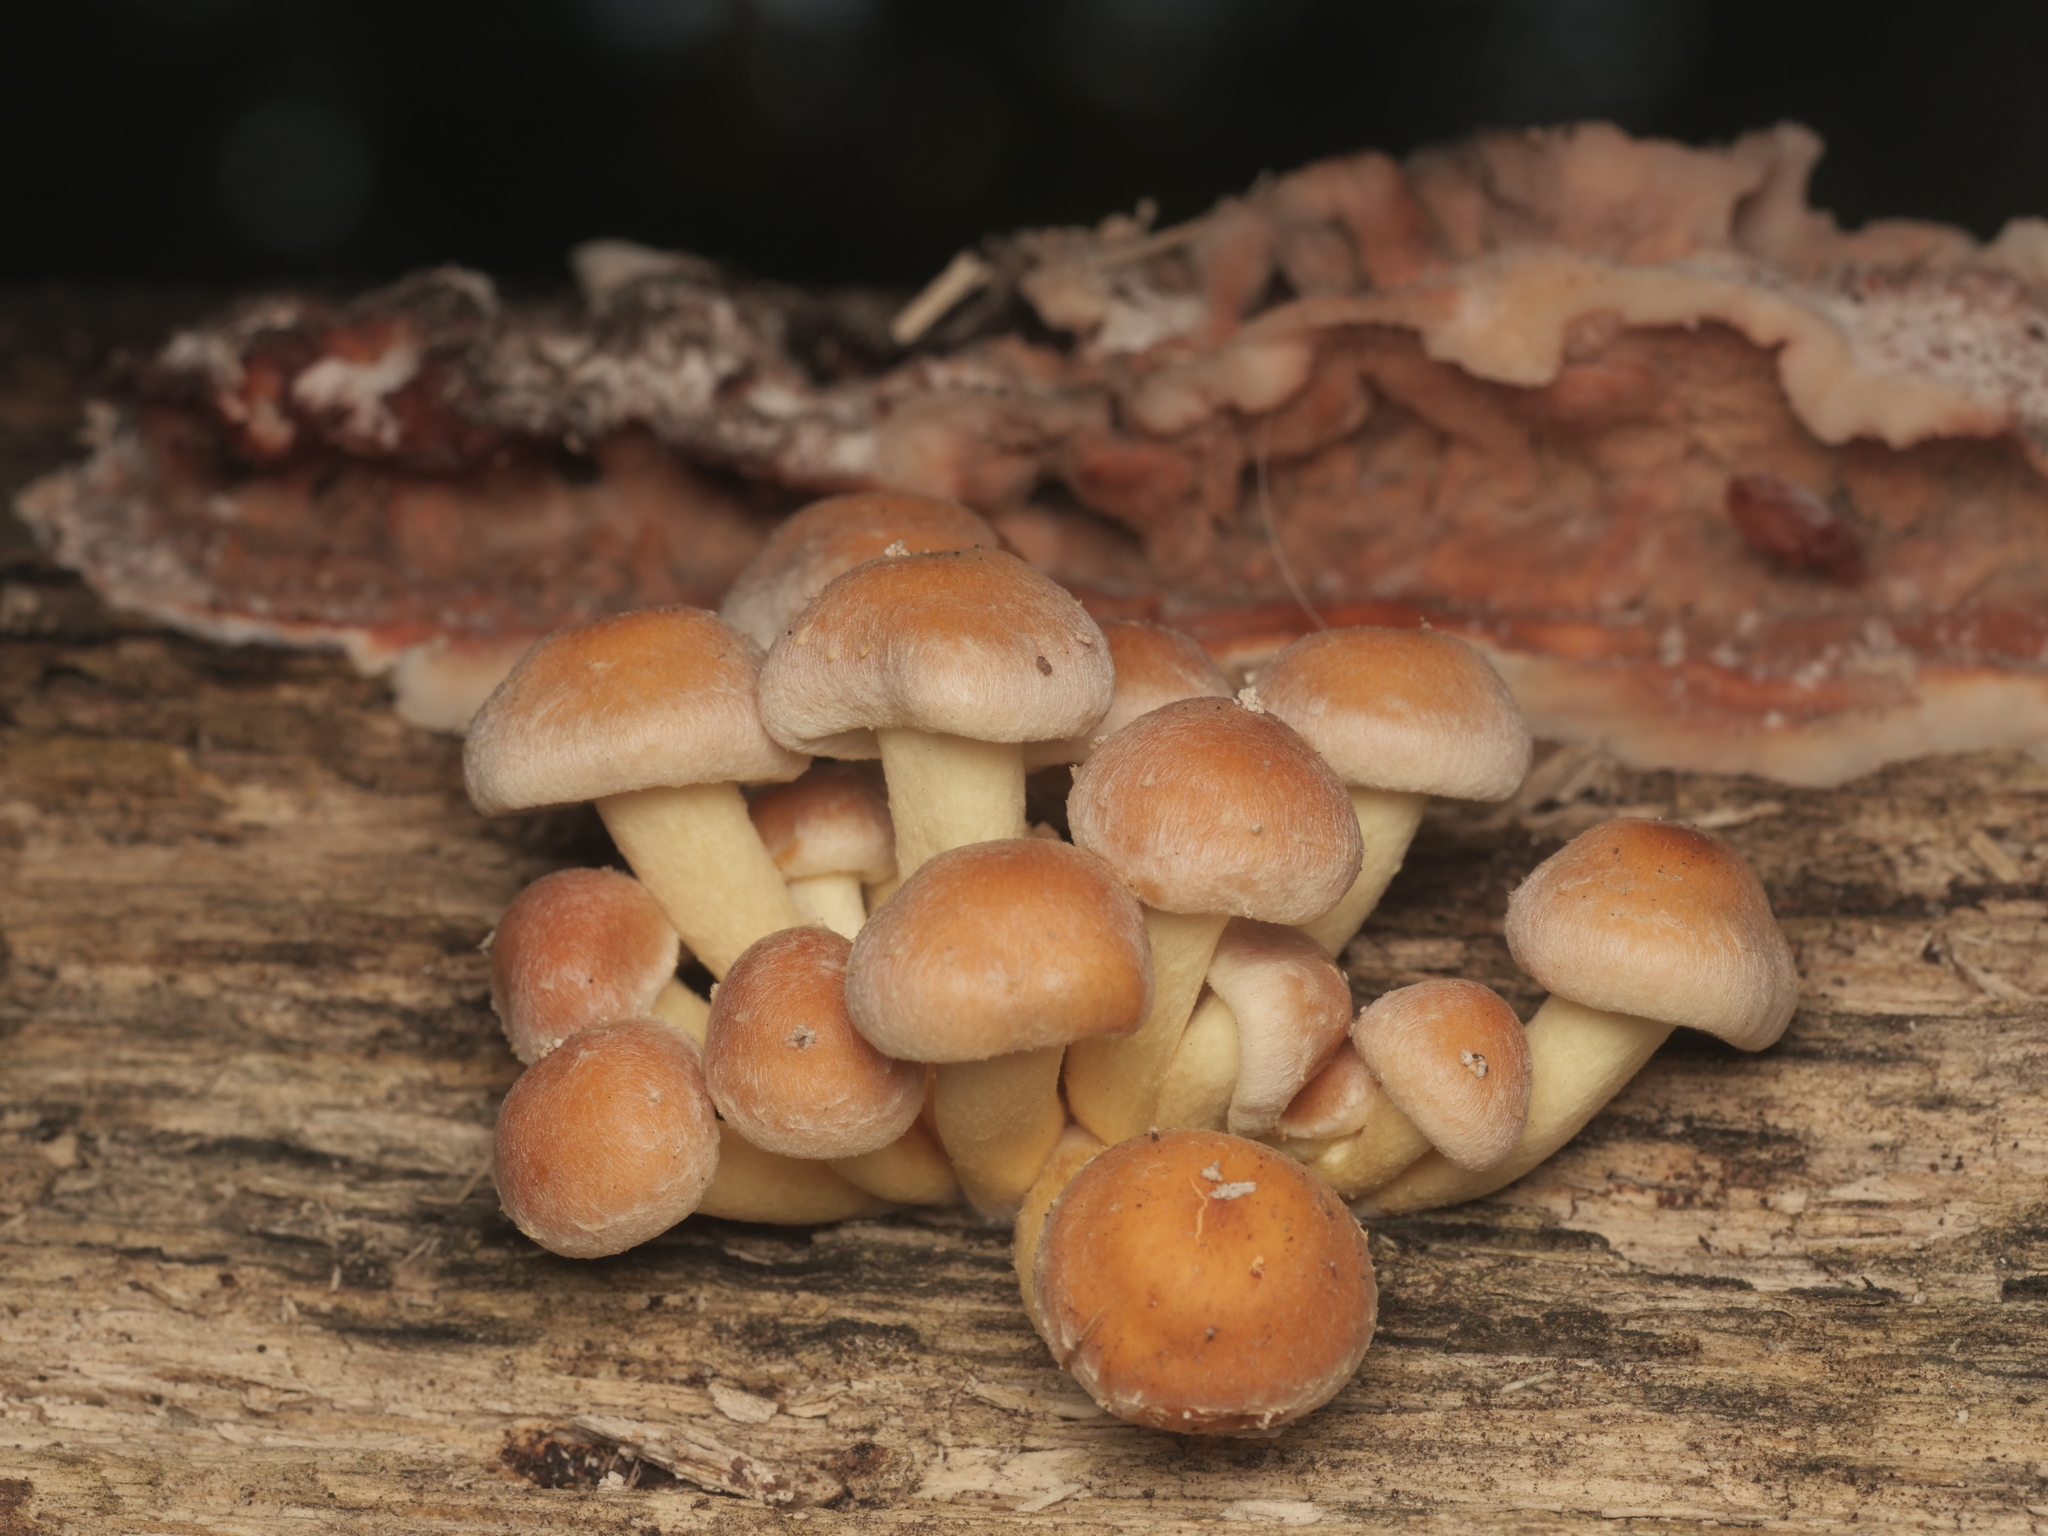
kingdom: Fungi
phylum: Basidiomycota
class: Agaricomycetes
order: Agaricales
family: Strophariaceae
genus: Hypholoma
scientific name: Hypholoma fasciculare
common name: Sulphur tuft
